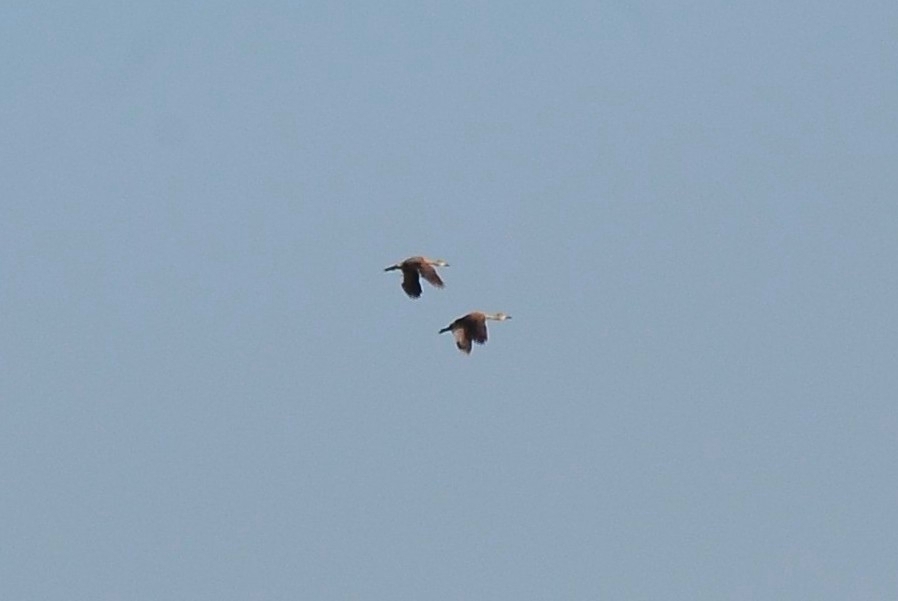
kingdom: Animalia
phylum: Chordata
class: Aves
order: Anseriformes
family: Anatidae
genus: Dendrocygna
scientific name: Dendrocygna javanica
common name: Lesser whistling-duck
